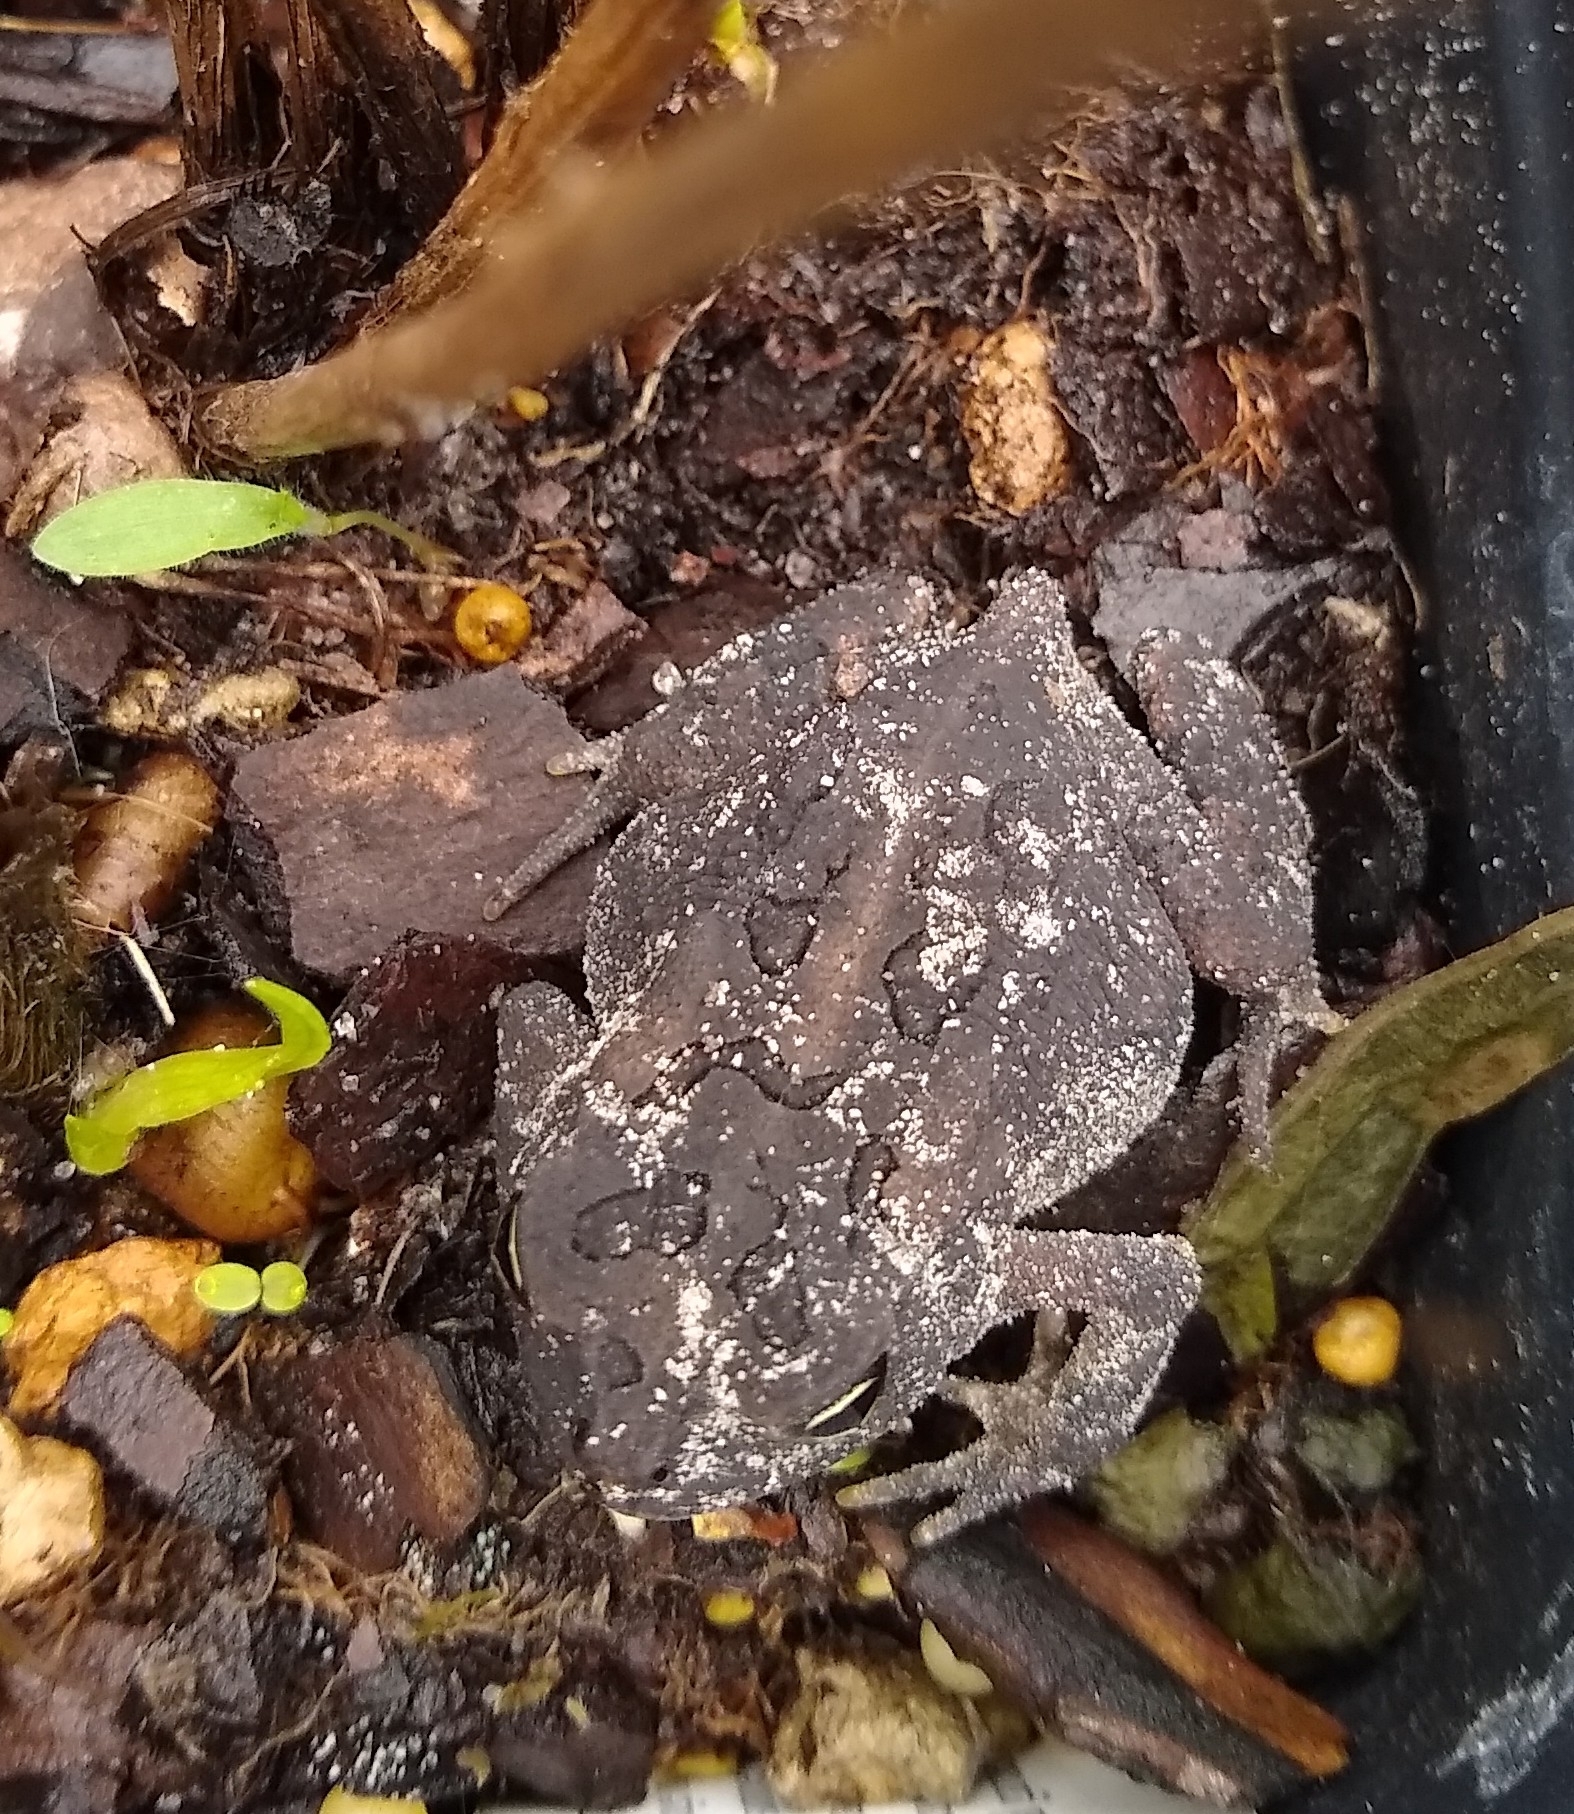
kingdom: Animalia
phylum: Chordata
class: Amphibia
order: Anura
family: Bufonidae
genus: Anaxyrus
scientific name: Anaxyrus terrestris
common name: Southern toad
